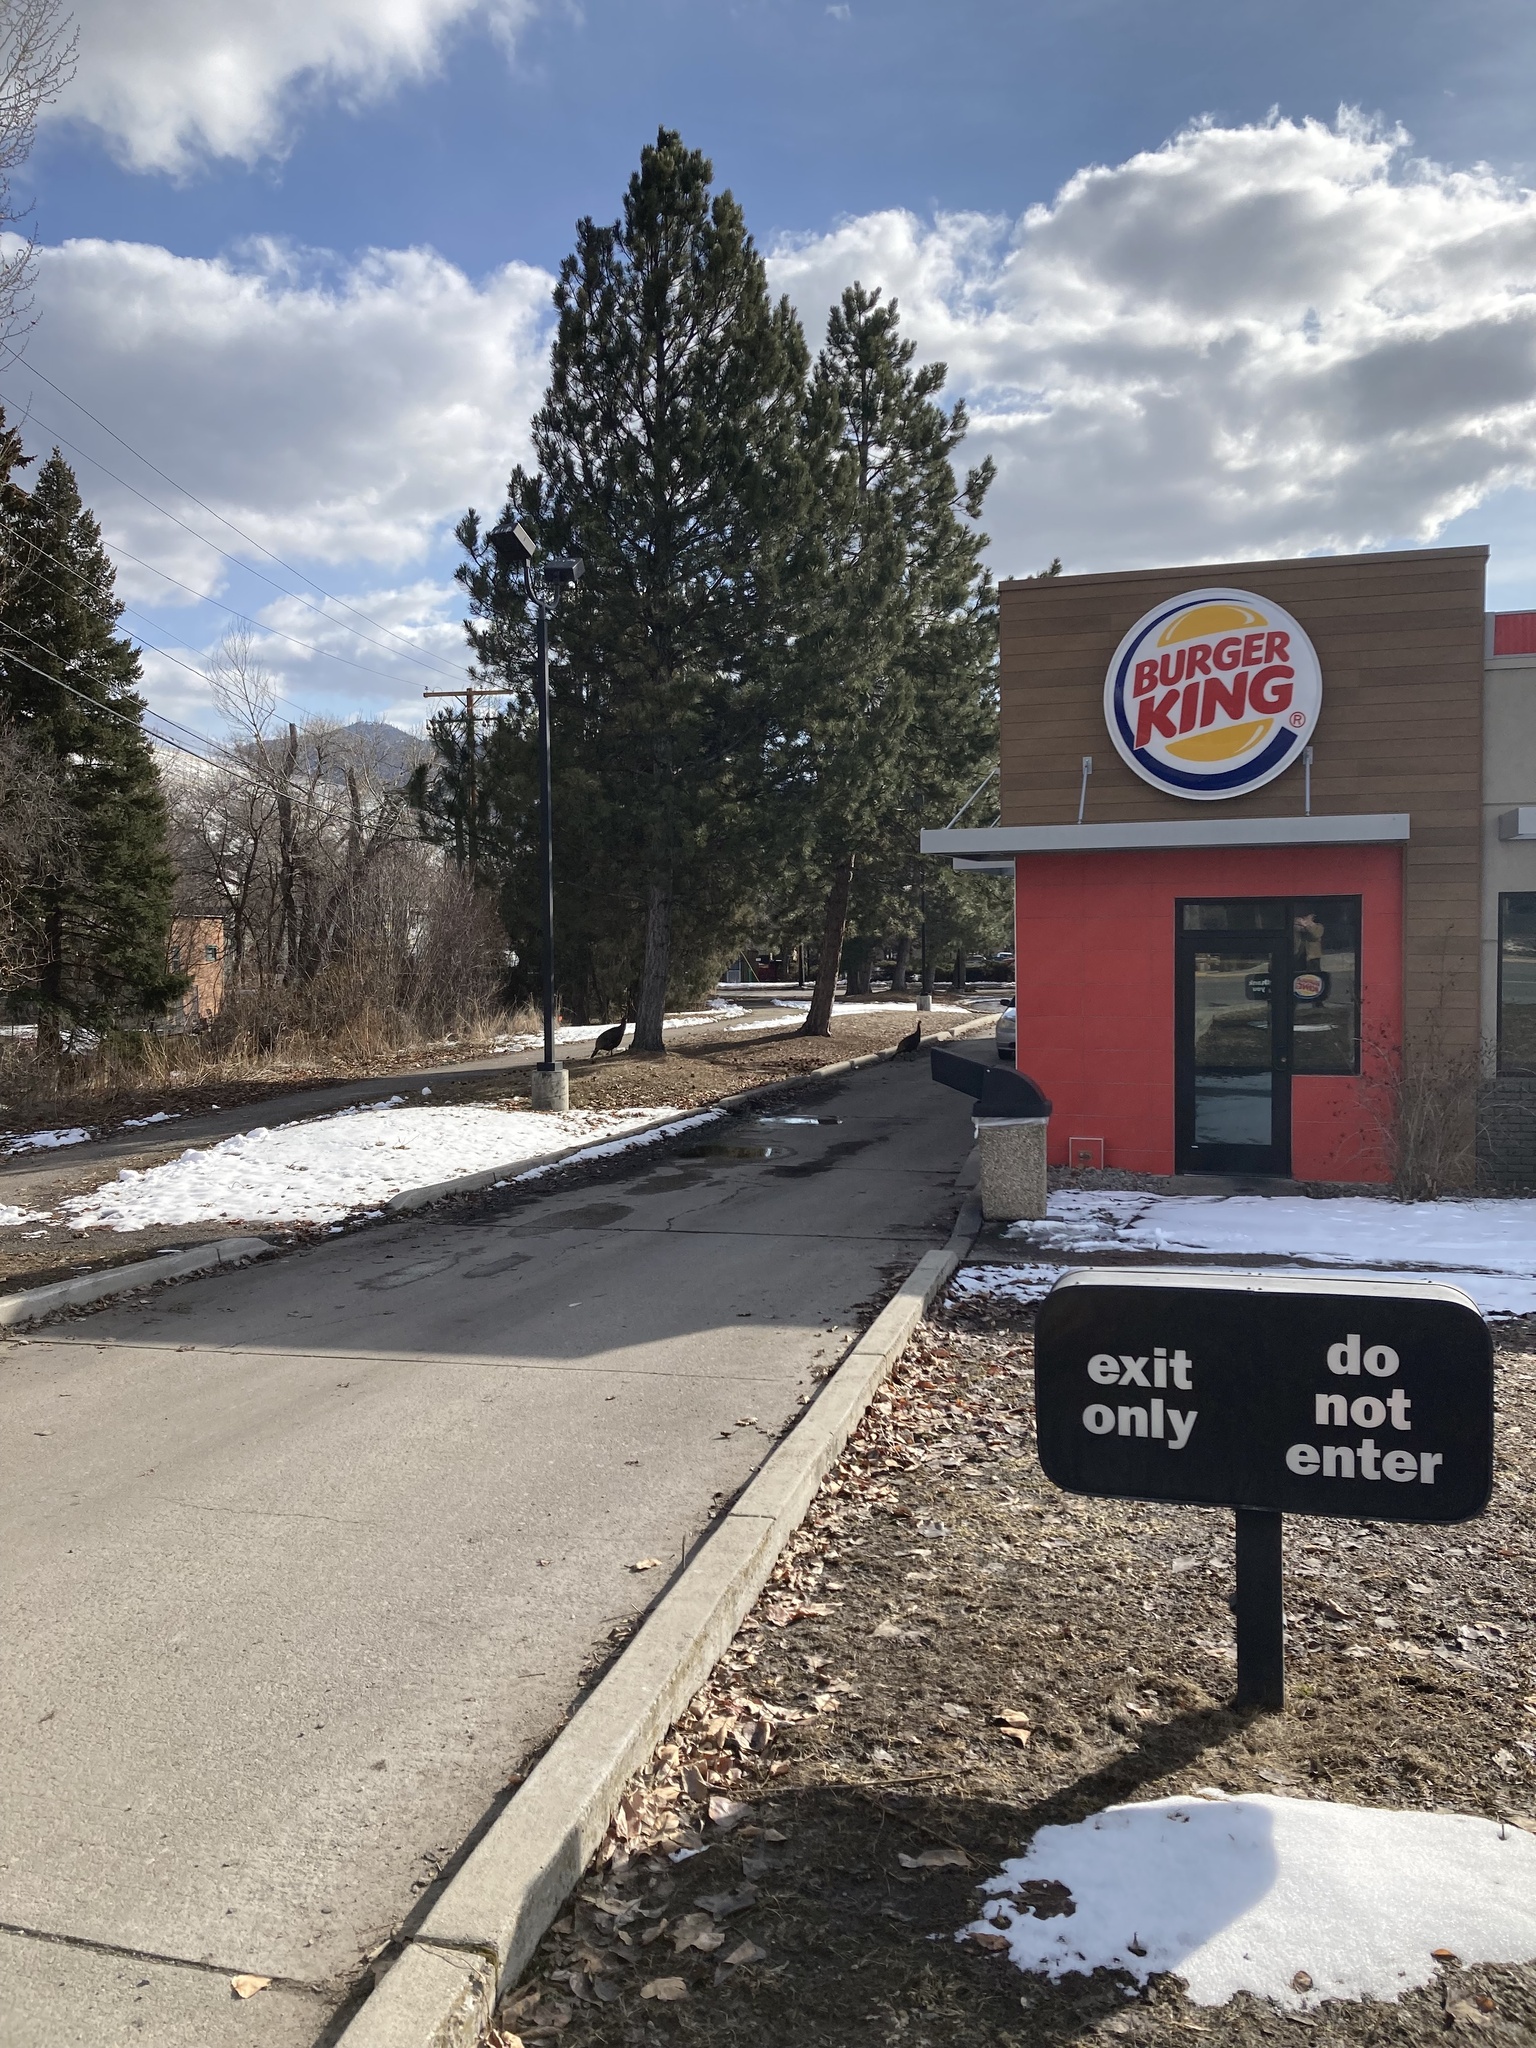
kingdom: Animalia
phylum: Chordata
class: Aves
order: Galliformes
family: Phasianidae
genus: Meleagris
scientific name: Meleagris gallopavo
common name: Wild turkey
